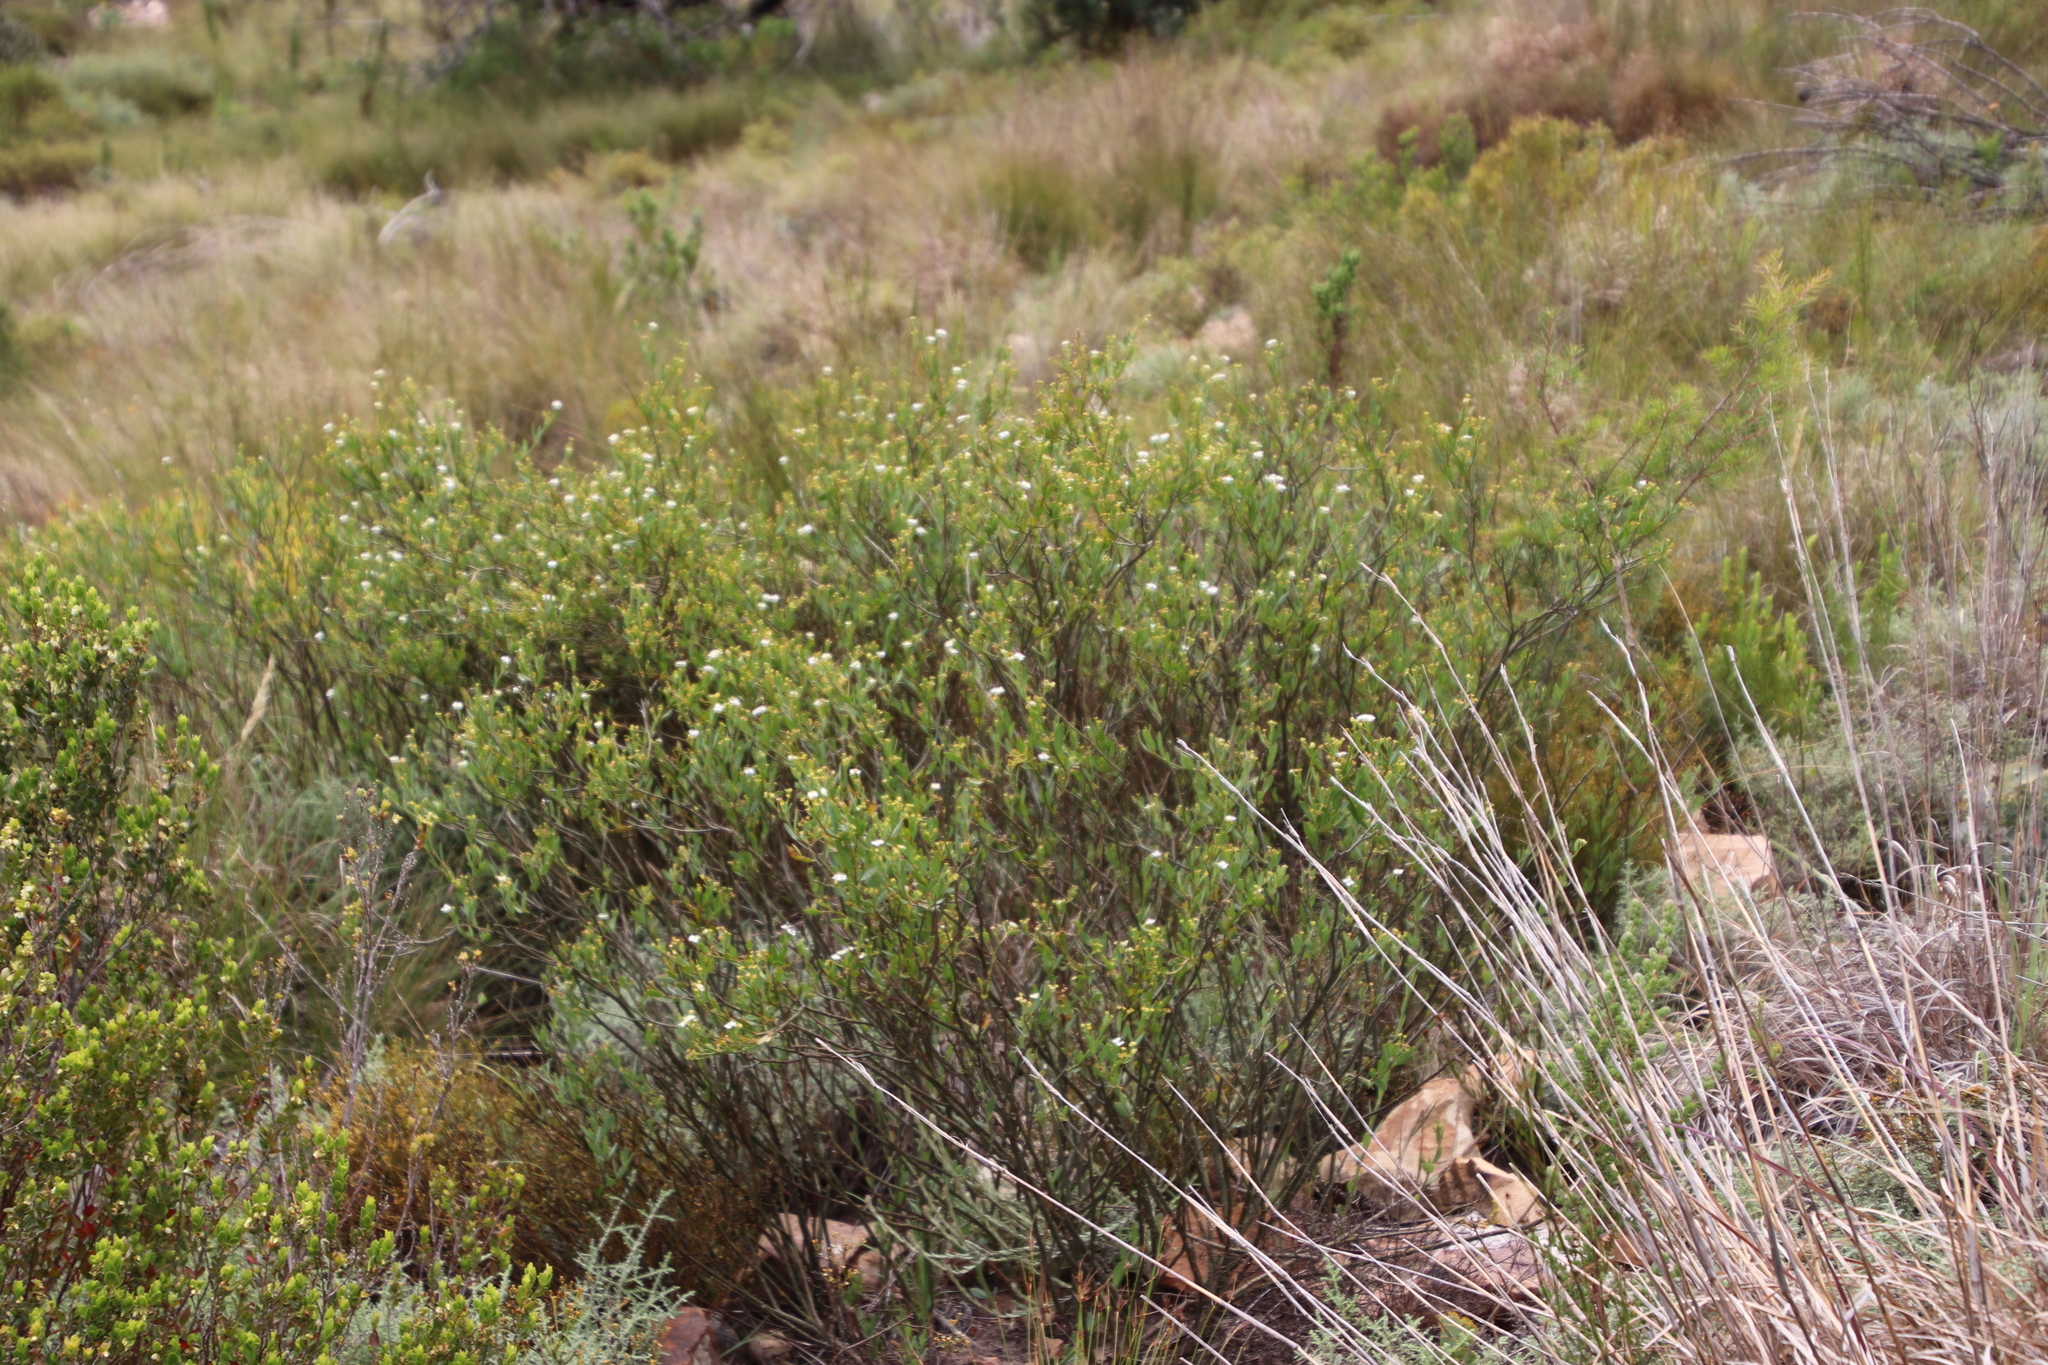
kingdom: Plantae
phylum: Tracheophyta
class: Magnoliopsida
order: Solanales
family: Montiniaceae
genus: Montinia
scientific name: Montinia caryophyllacea
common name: Wild clove-bush
